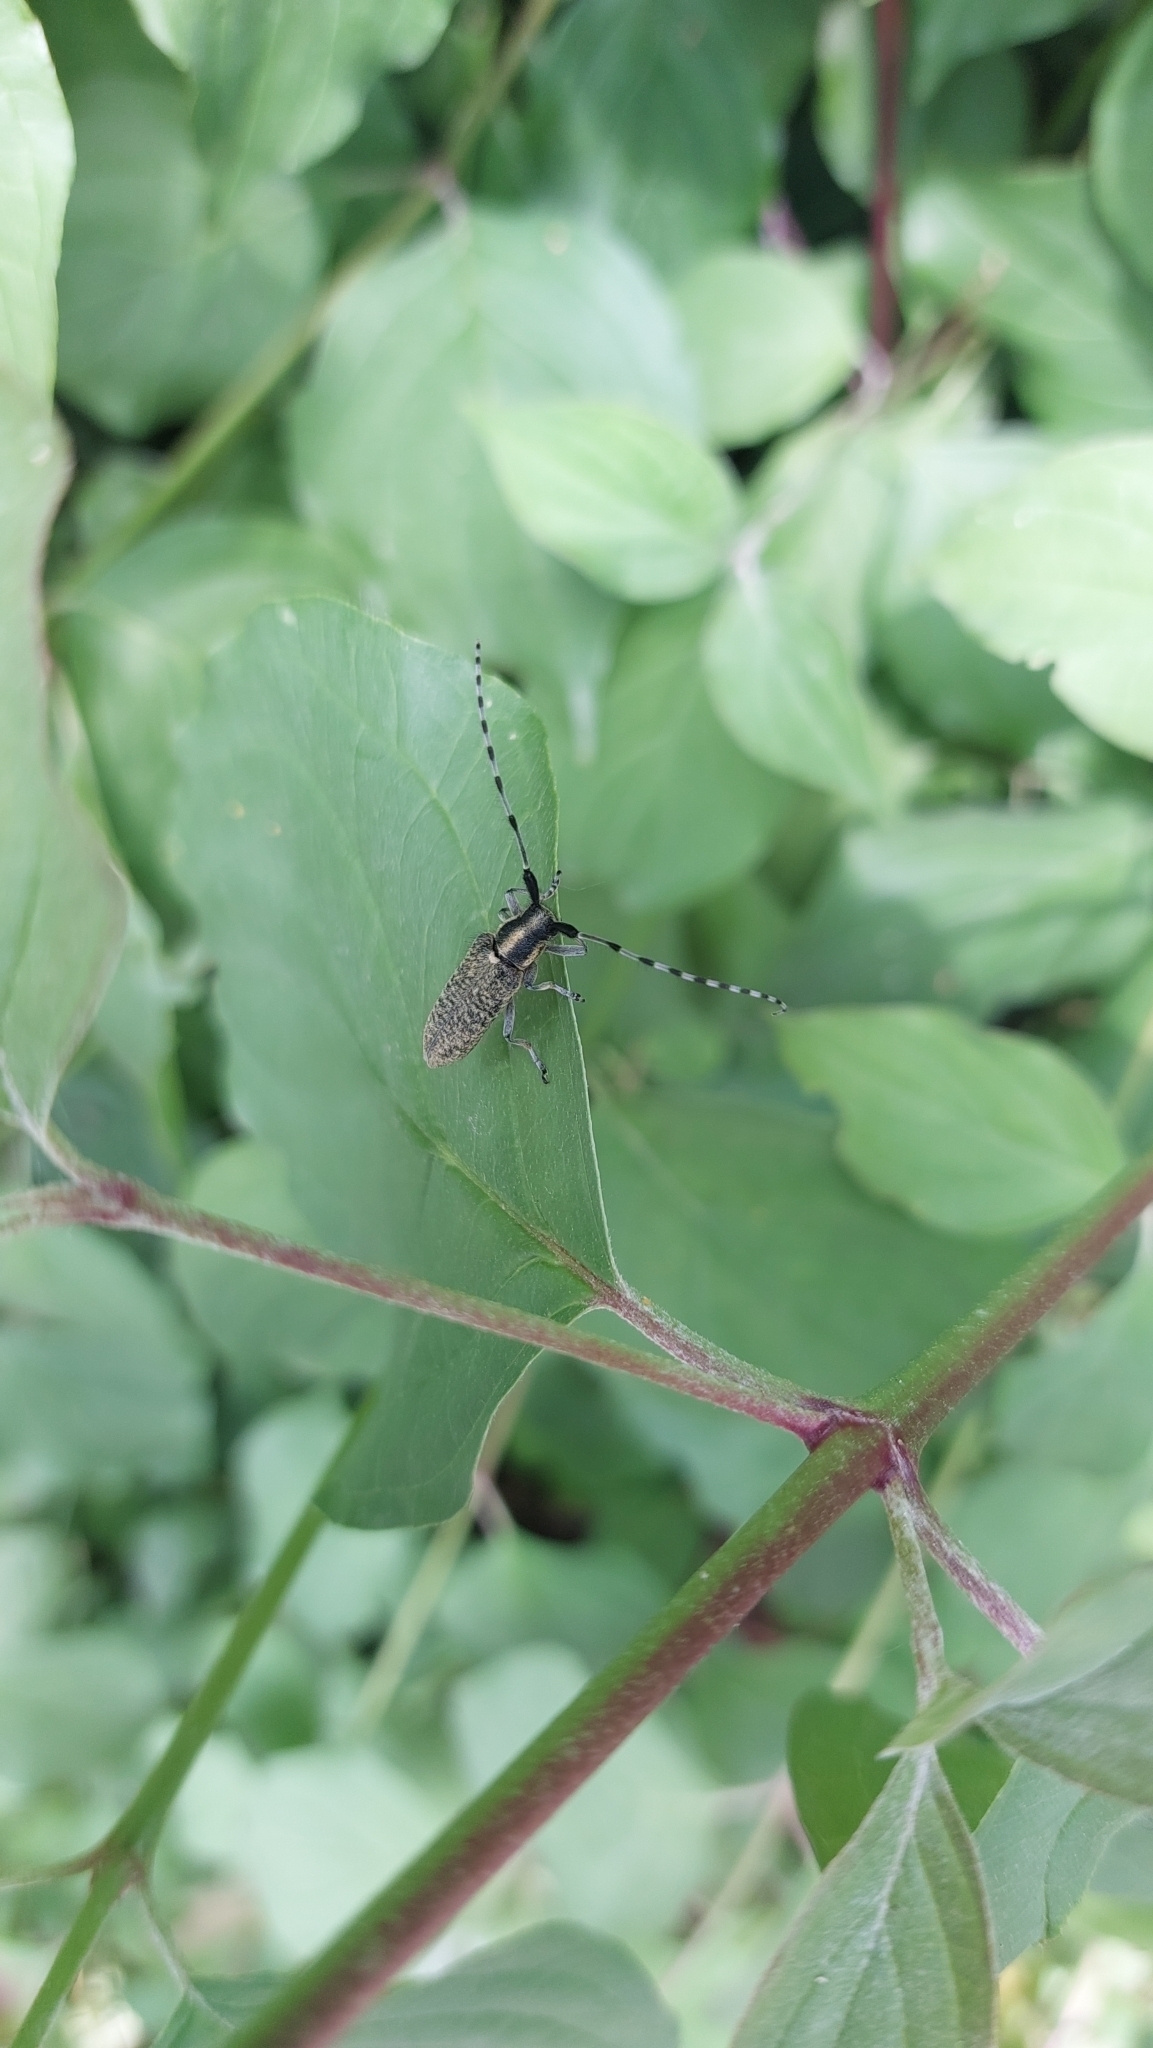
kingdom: Animalia
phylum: Arthropoda
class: Insecta
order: Coleoptera
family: Cerambycidae
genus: Agapanthia
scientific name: Agapanthia villosoviridescens
